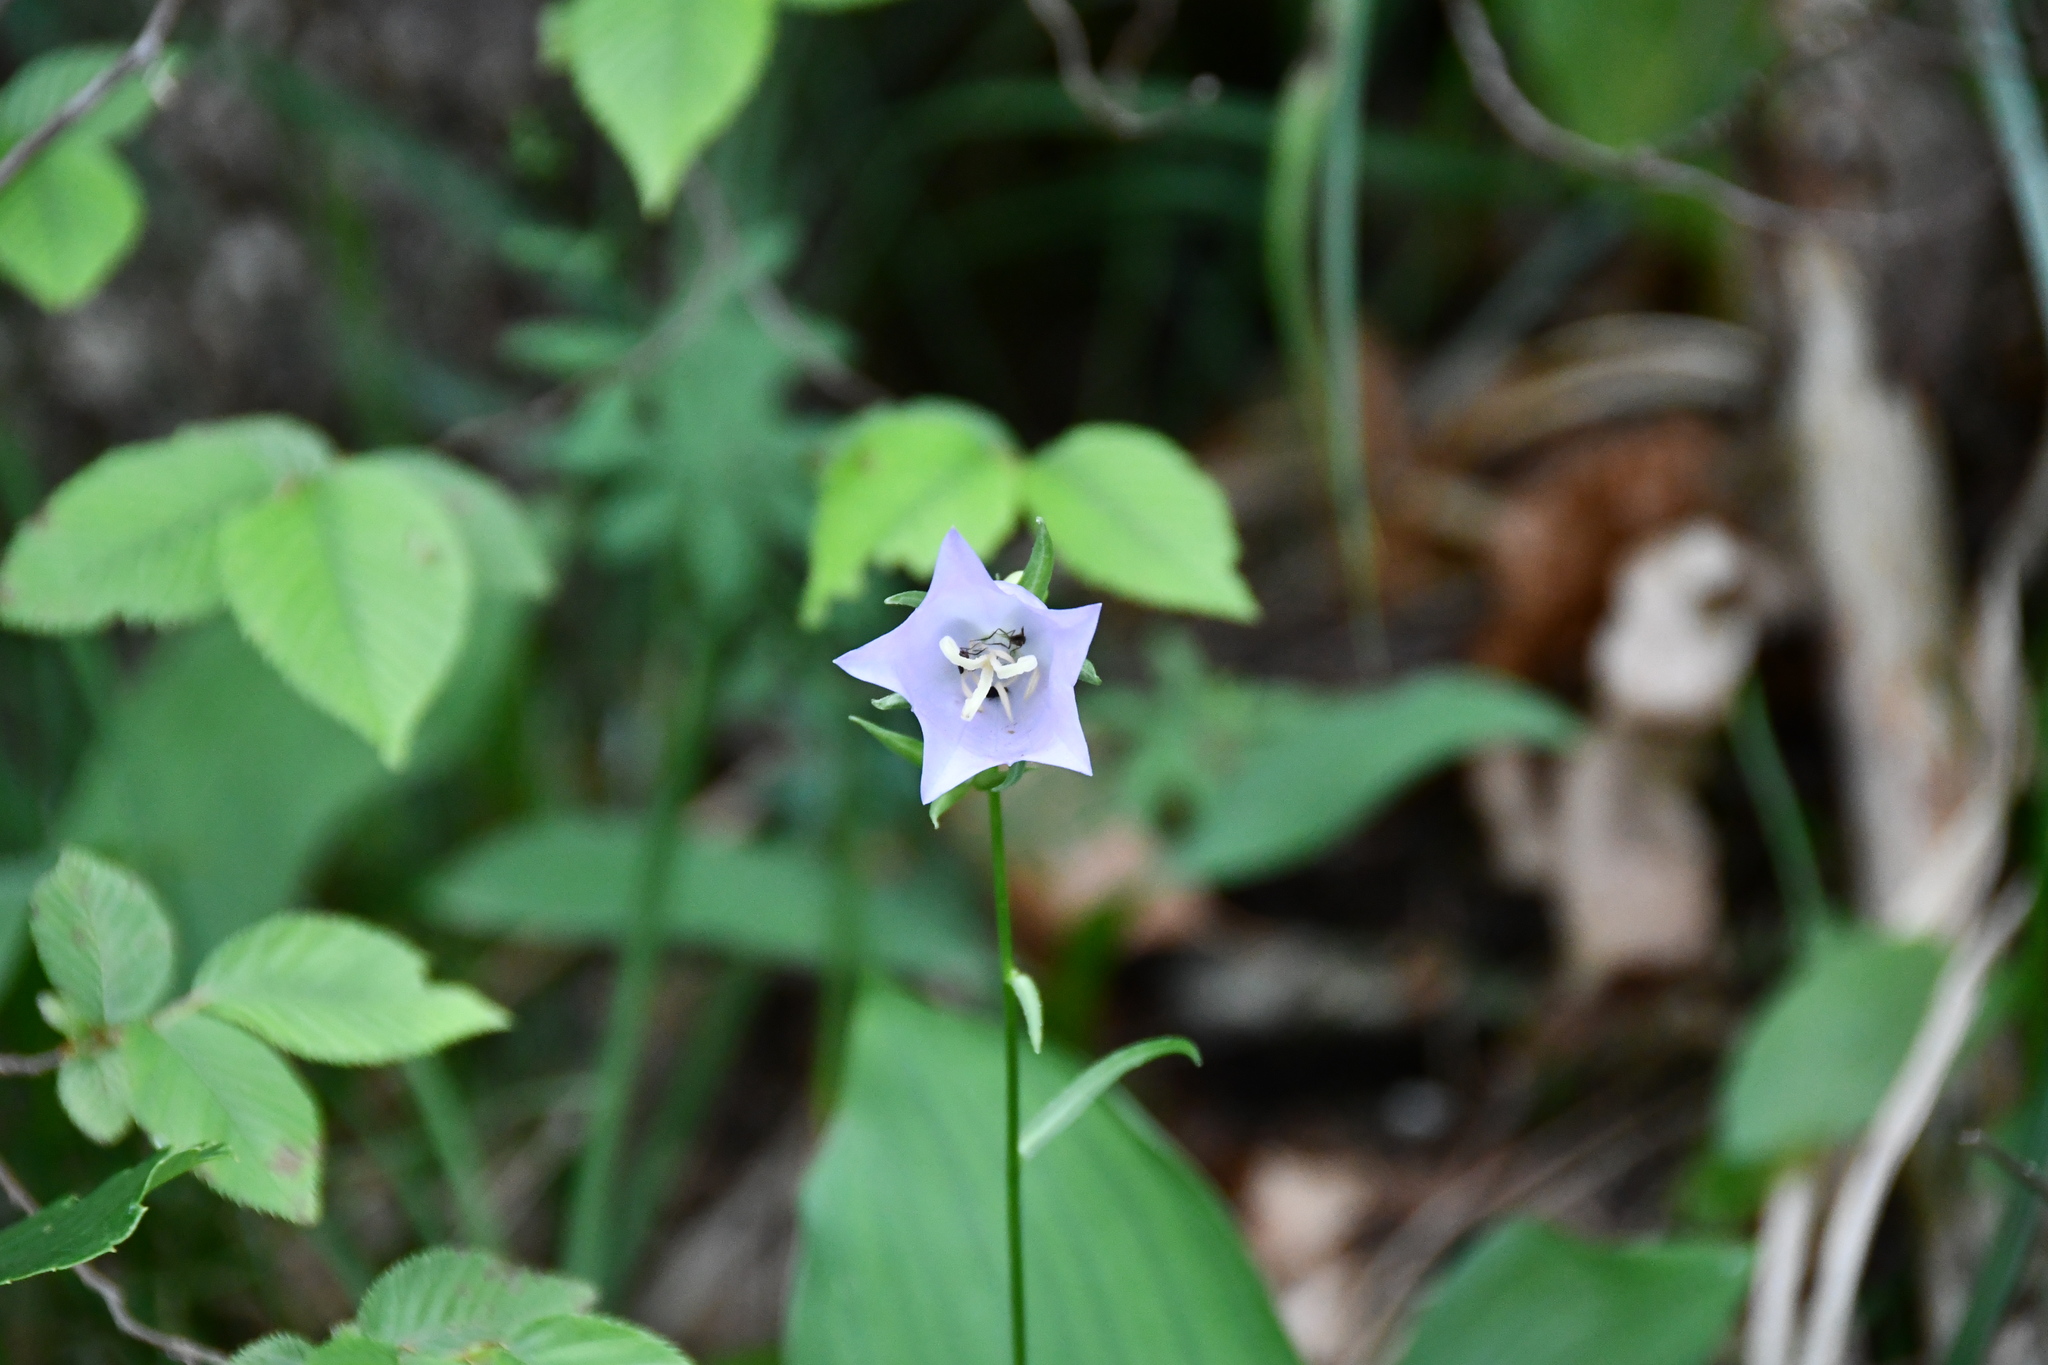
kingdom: Plantae
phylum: Tracheophyta
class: Magnoliopsida
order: Asterales
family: Campanulaceae
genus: Campanula
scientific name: Campanula persicifolia
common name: Peach-leaved bellflower
